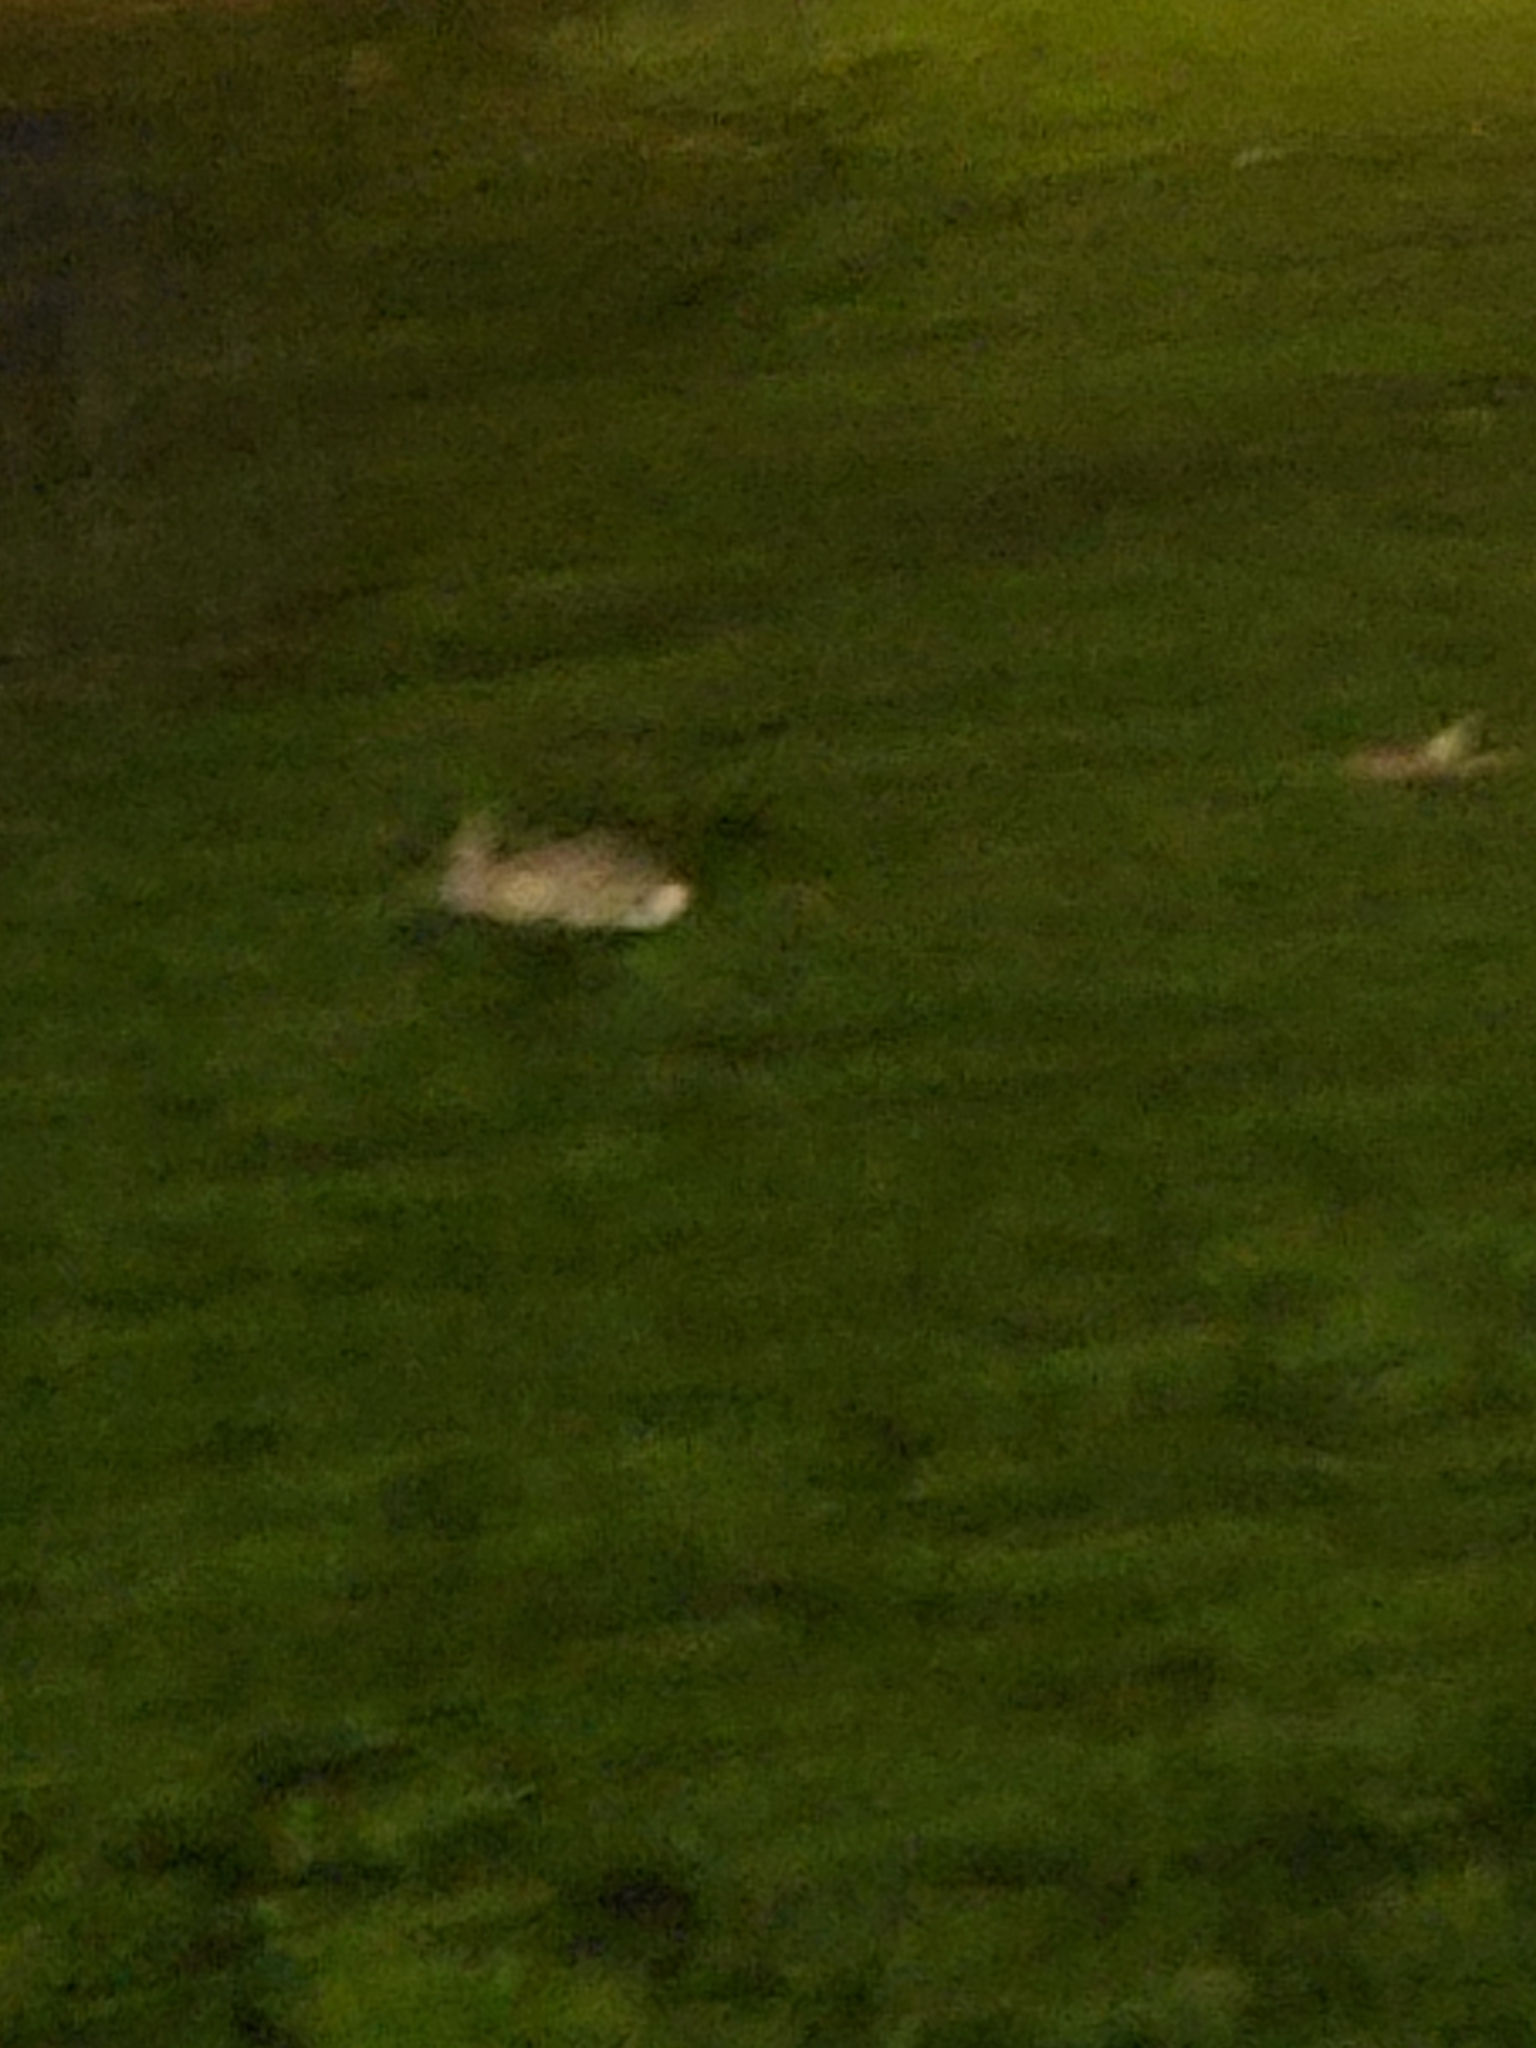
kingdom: Animalia
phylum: Chordata
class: Mammalia
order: Lagomorpha
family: Leporidae
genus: Sylvilagus
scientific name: Sylvilagus audubonii
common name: Desert cottontail
